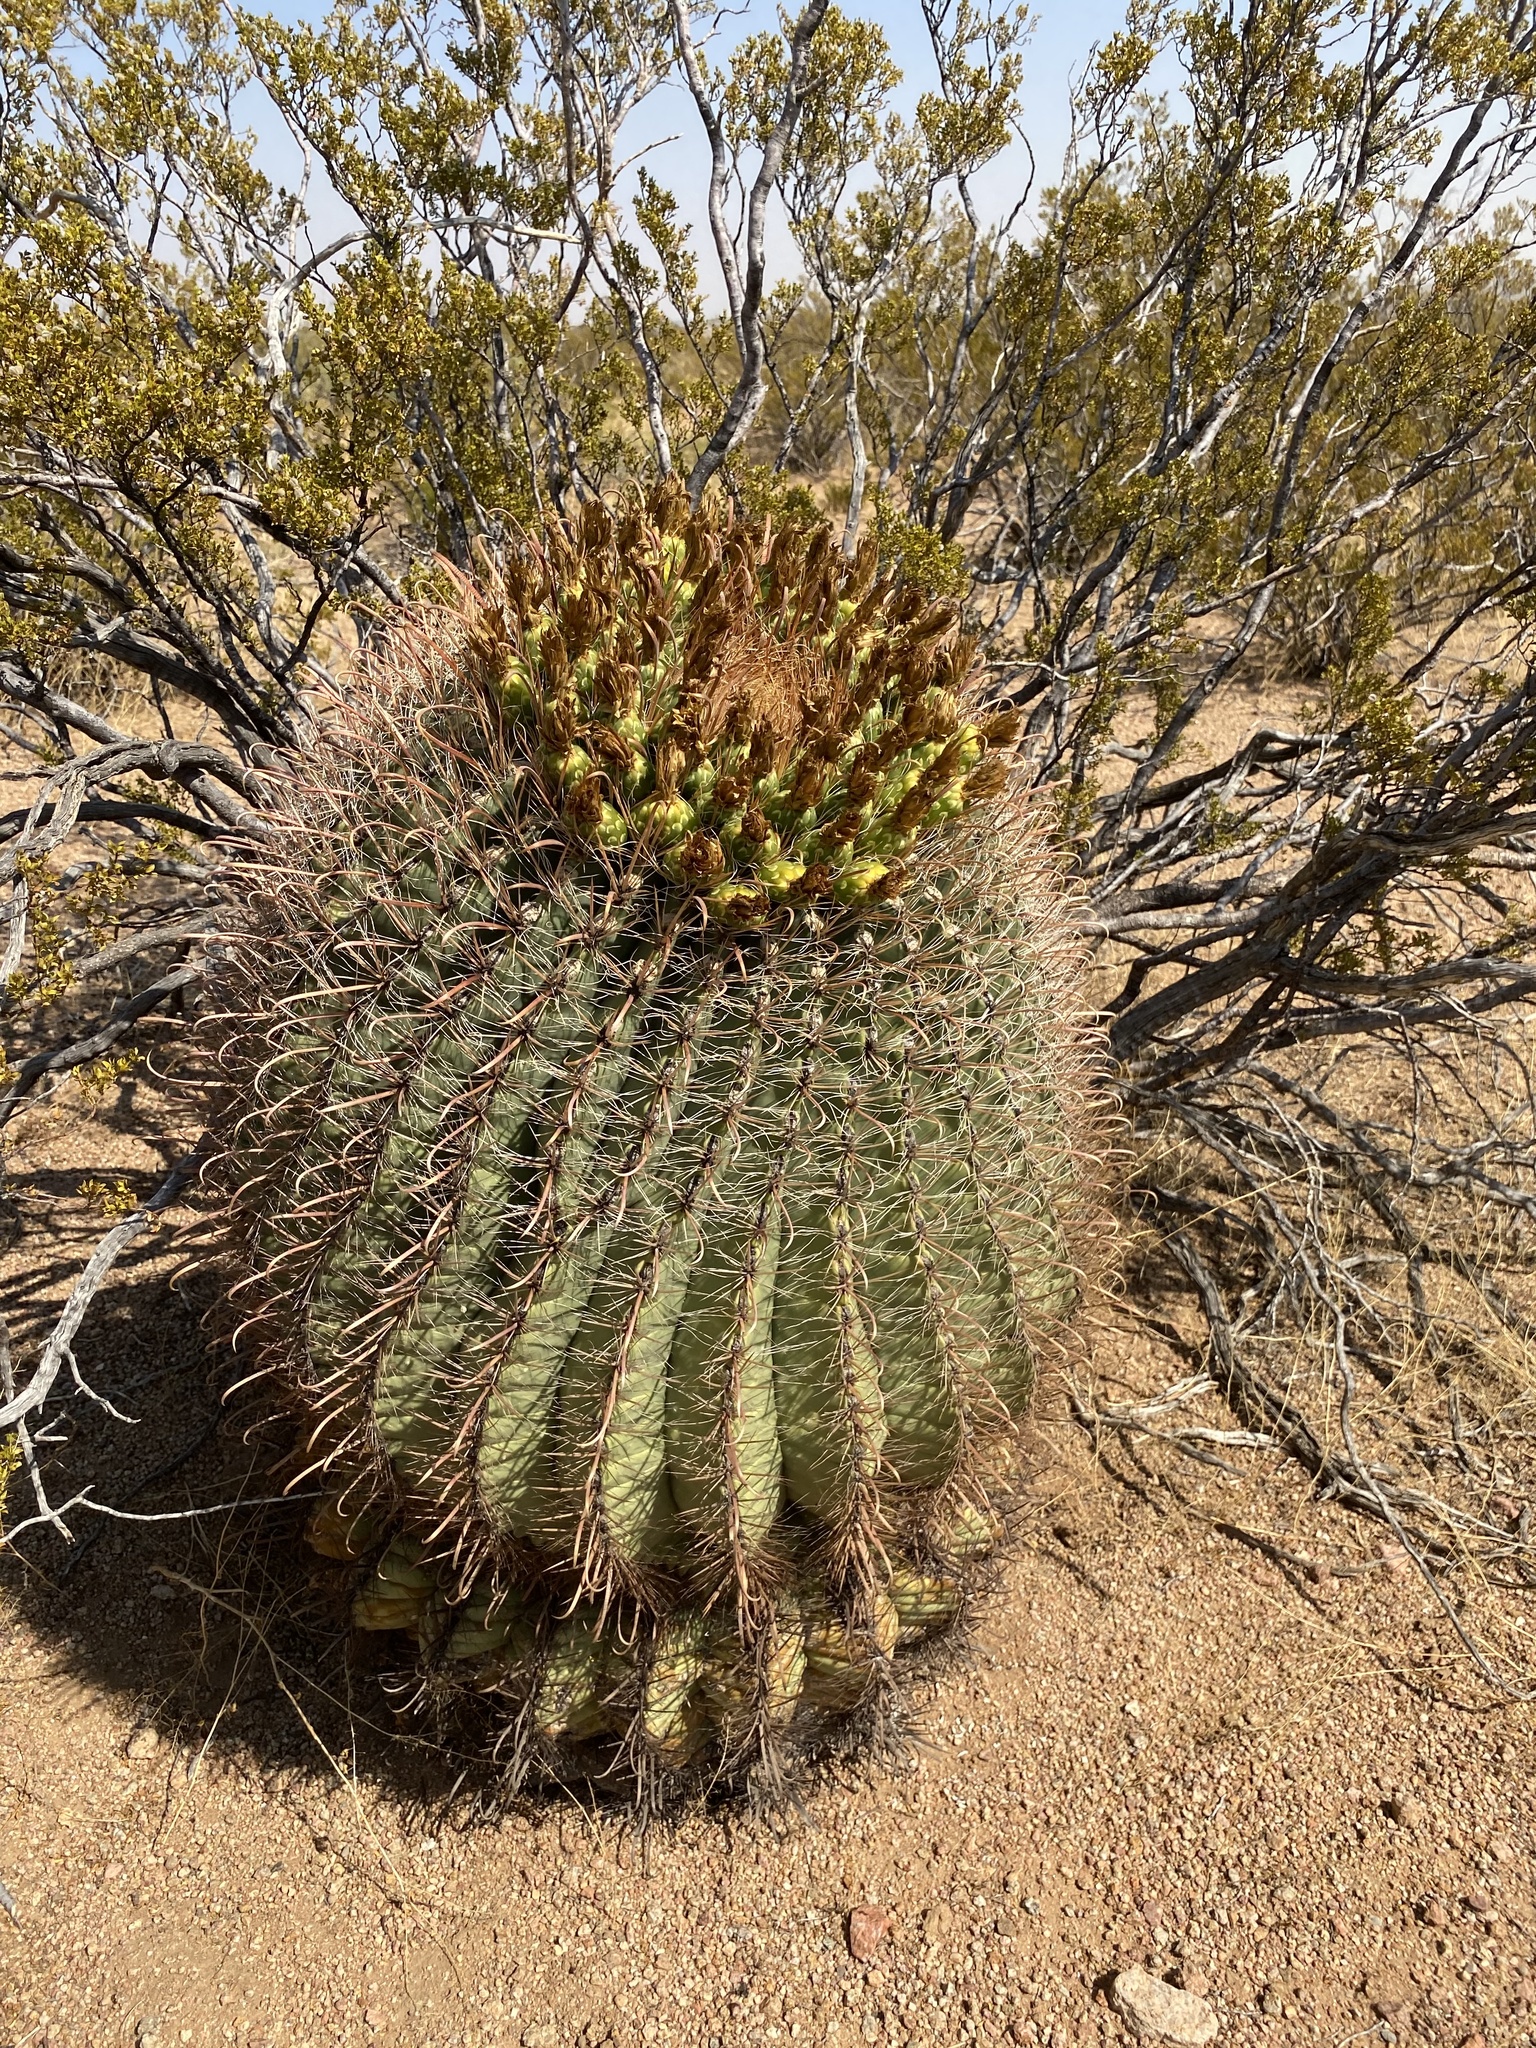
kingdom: Plantae
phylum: Tracheophyta
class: Magnoliopsida
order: Caryophyllales
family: Cactaceae
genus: Ferocactus
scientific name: Ferocactus wislizeni
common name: Candy barrel cactus
